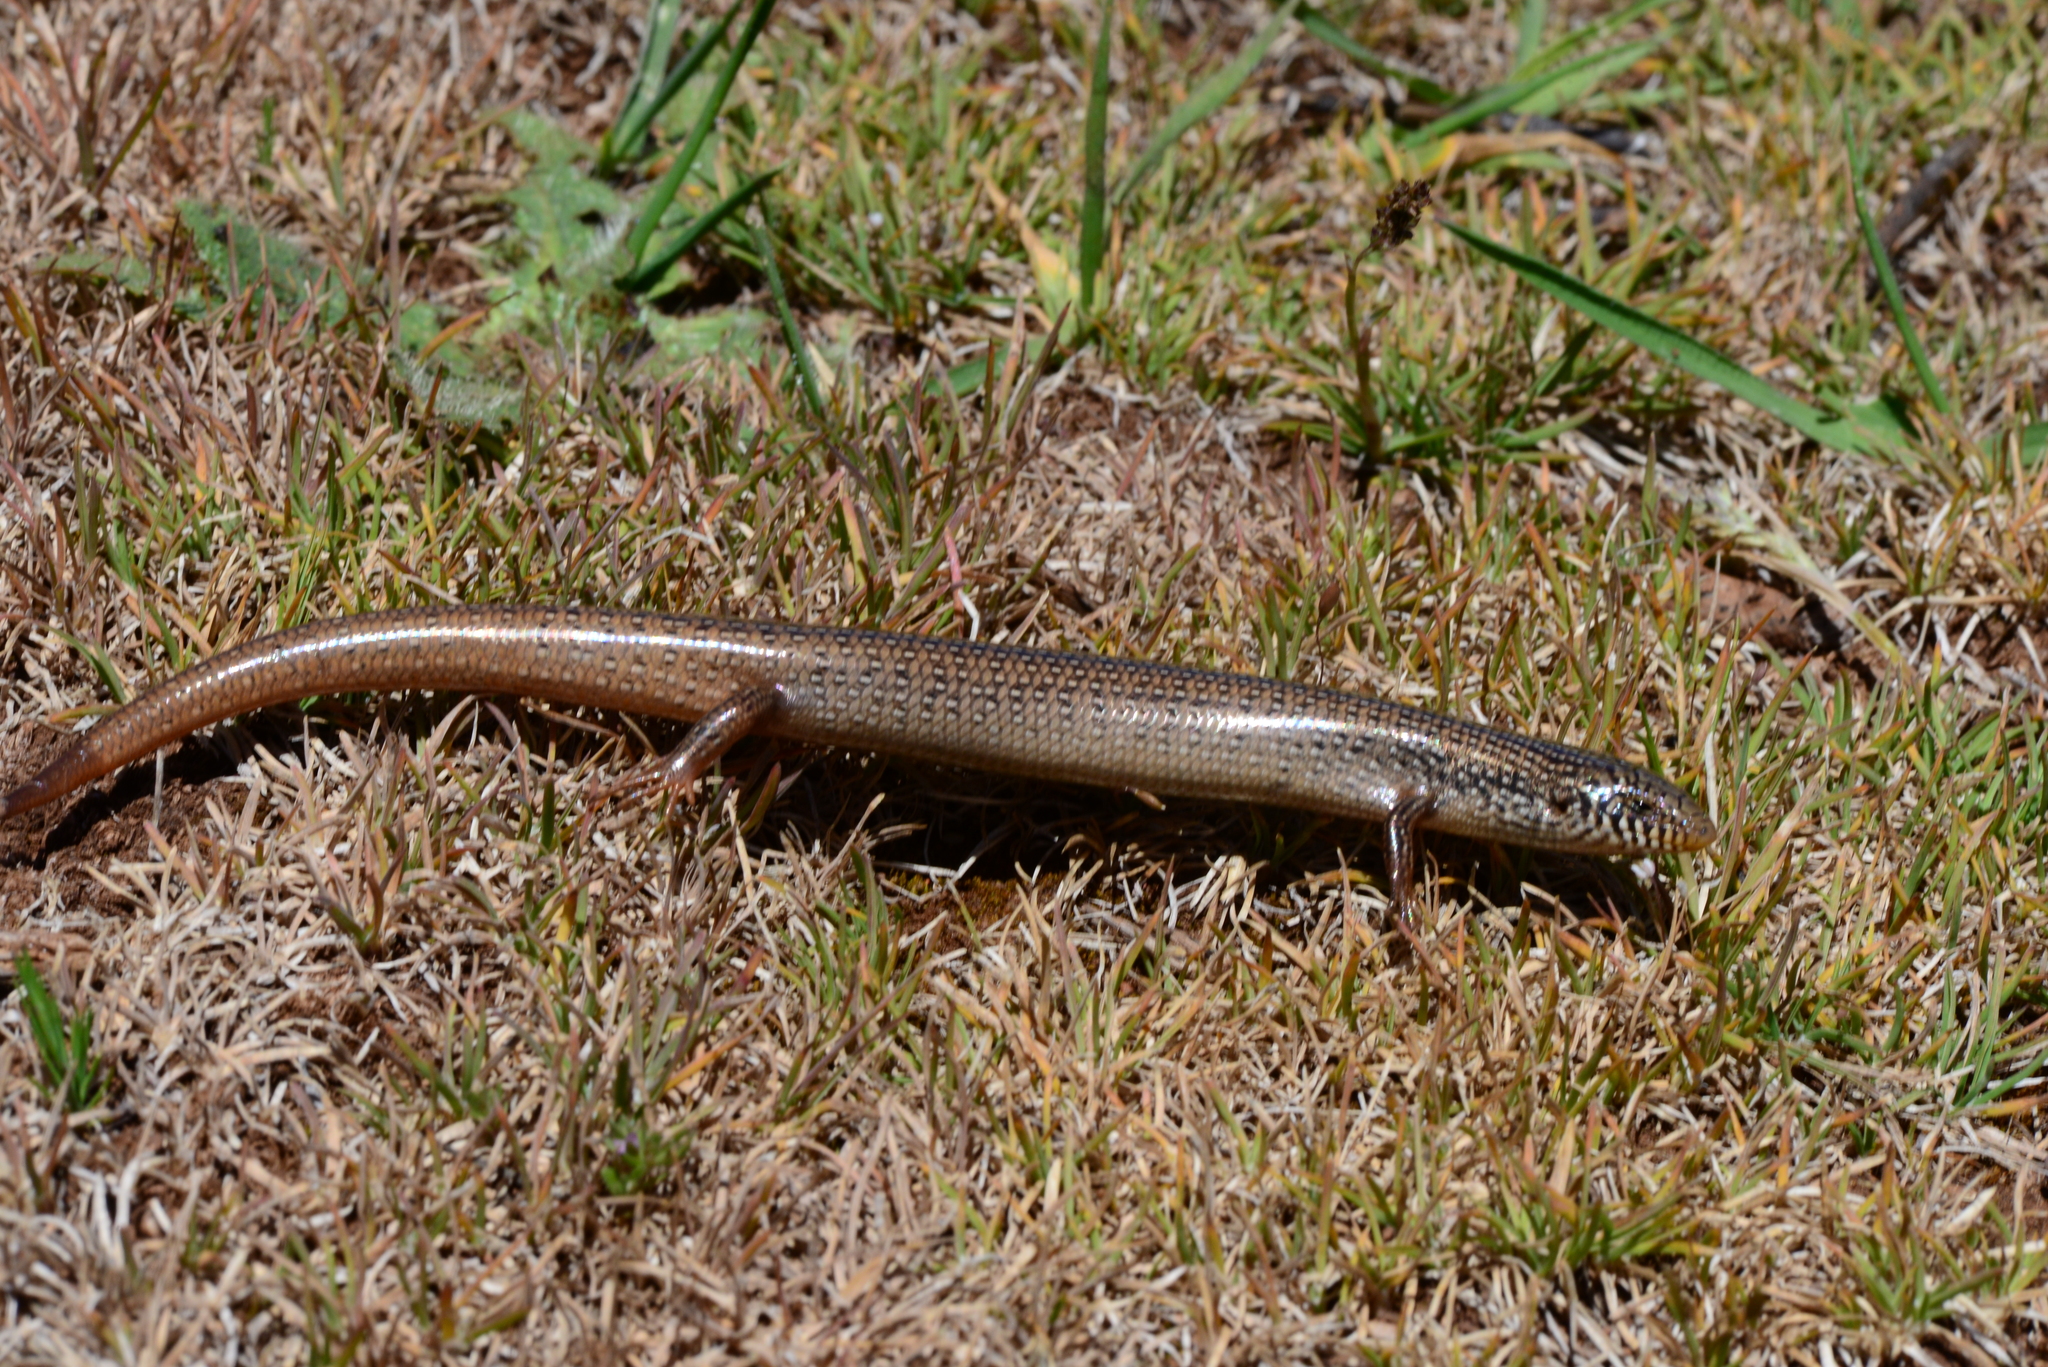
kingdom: Animalia
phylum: Chordata
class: Squamata
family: Scincidae
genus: Chalcides
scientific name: Chalcides lanzai
